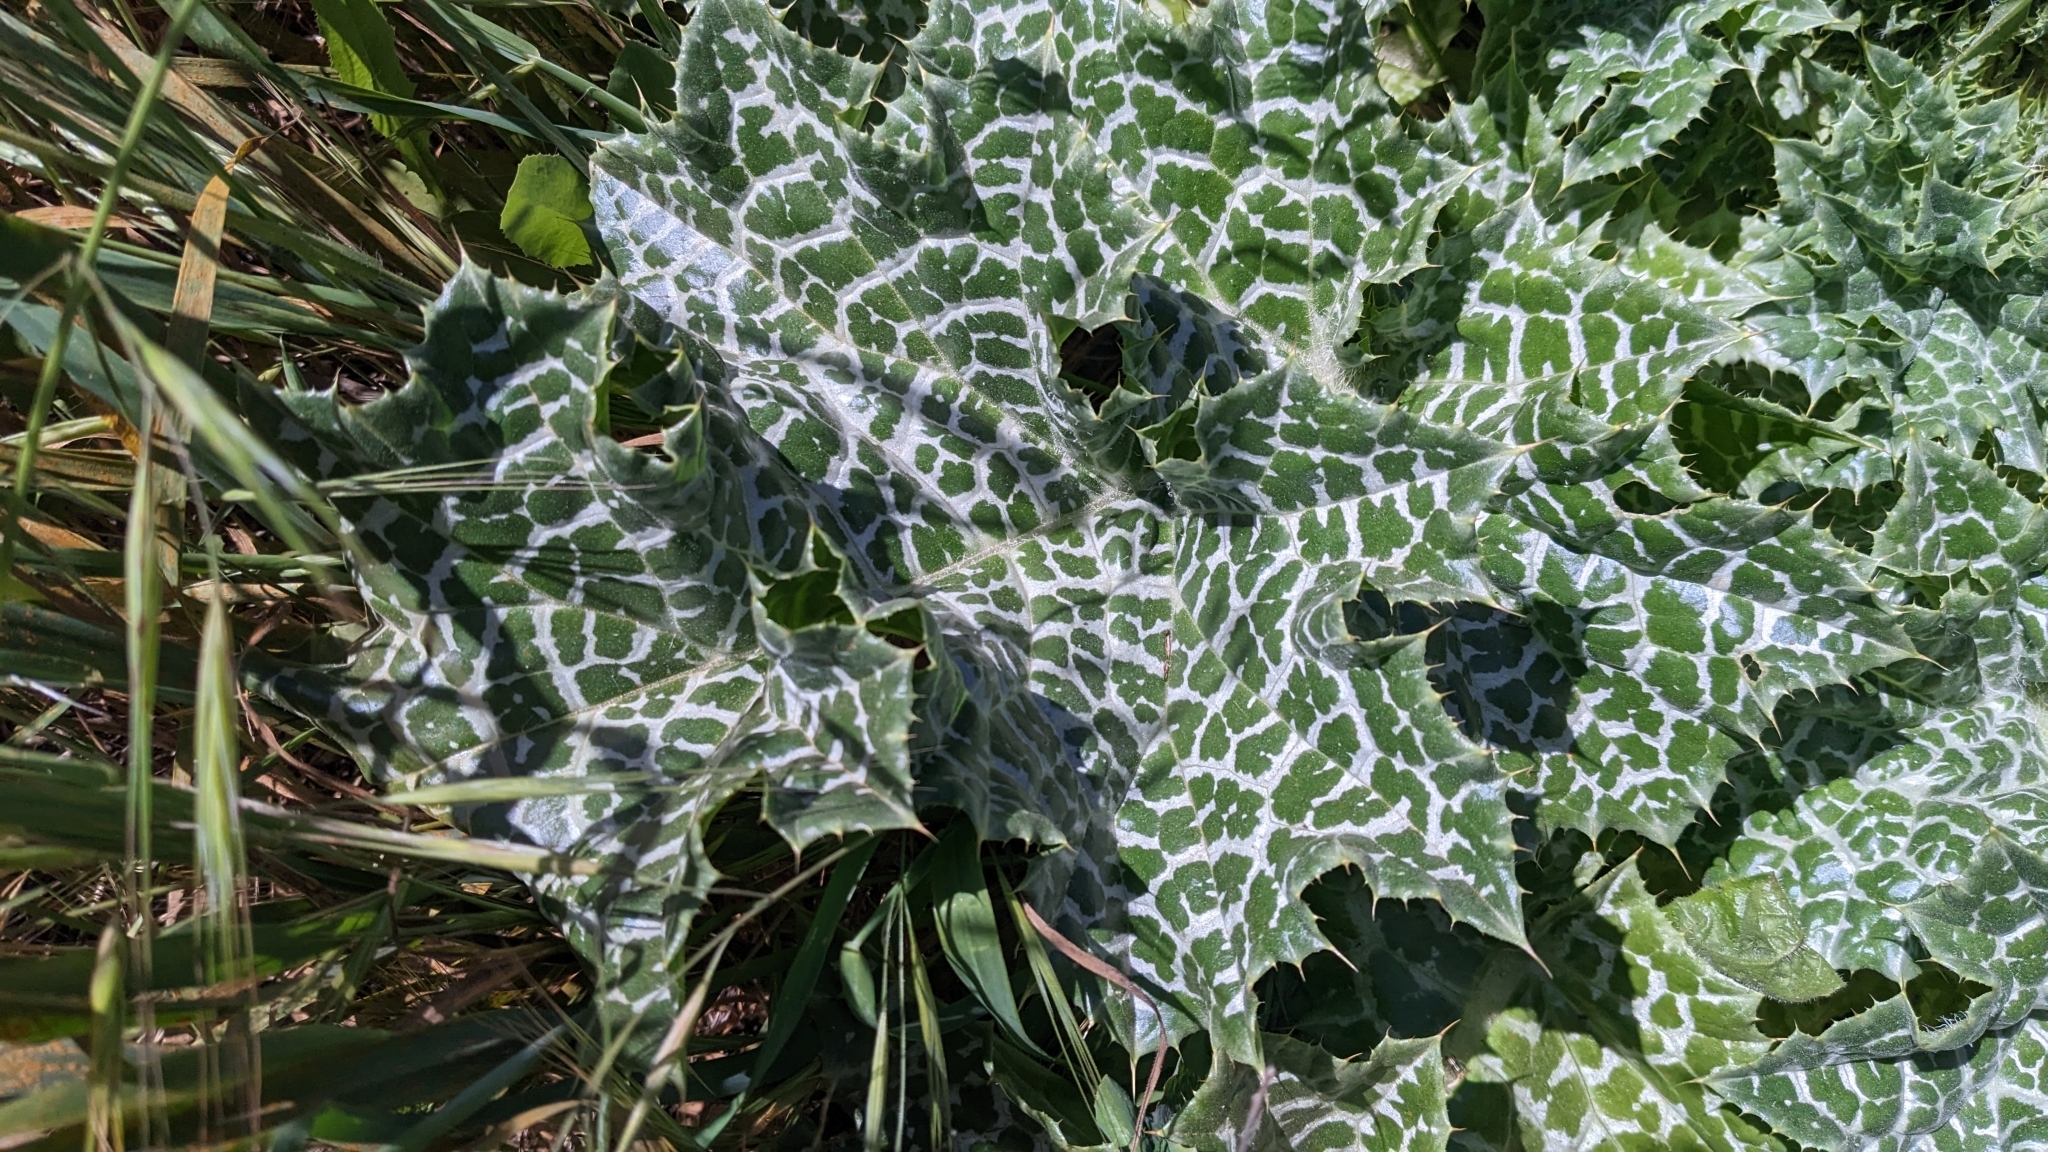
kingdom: Plantae
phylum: Tracheophyta
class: Magnoliopsida
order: Asterales
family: Asteraceae
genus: Silybum
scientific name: Silybum marianum
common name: Milk thistle
